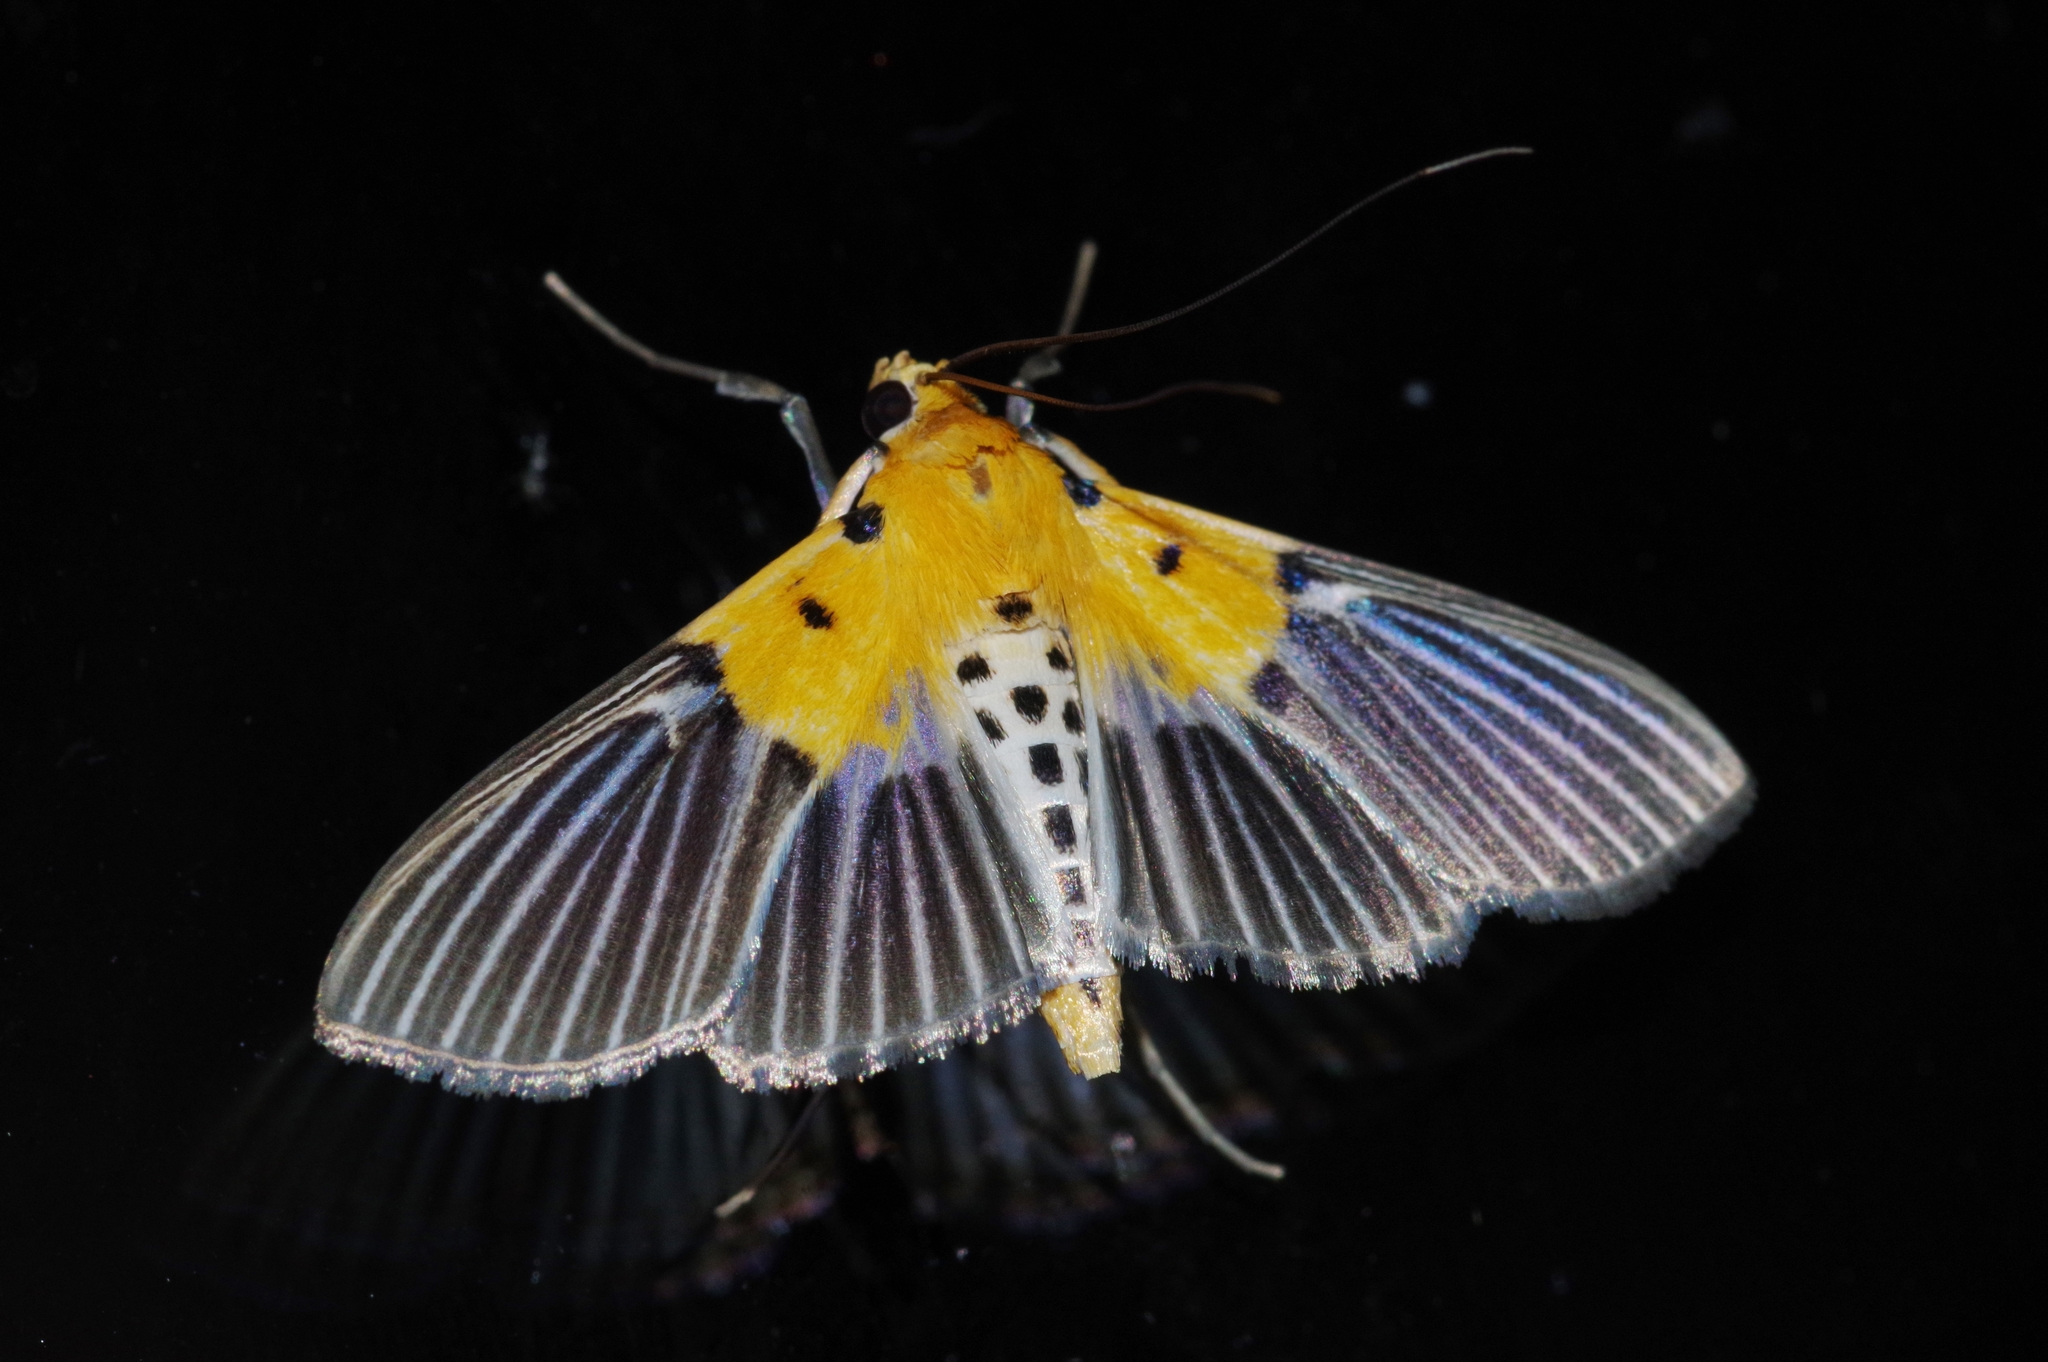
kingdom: Animalia
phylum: Arthropoda
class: Insecta
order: Lepidoptera
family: Crambidae
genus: Nevrina
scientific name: Nevrina procopia
